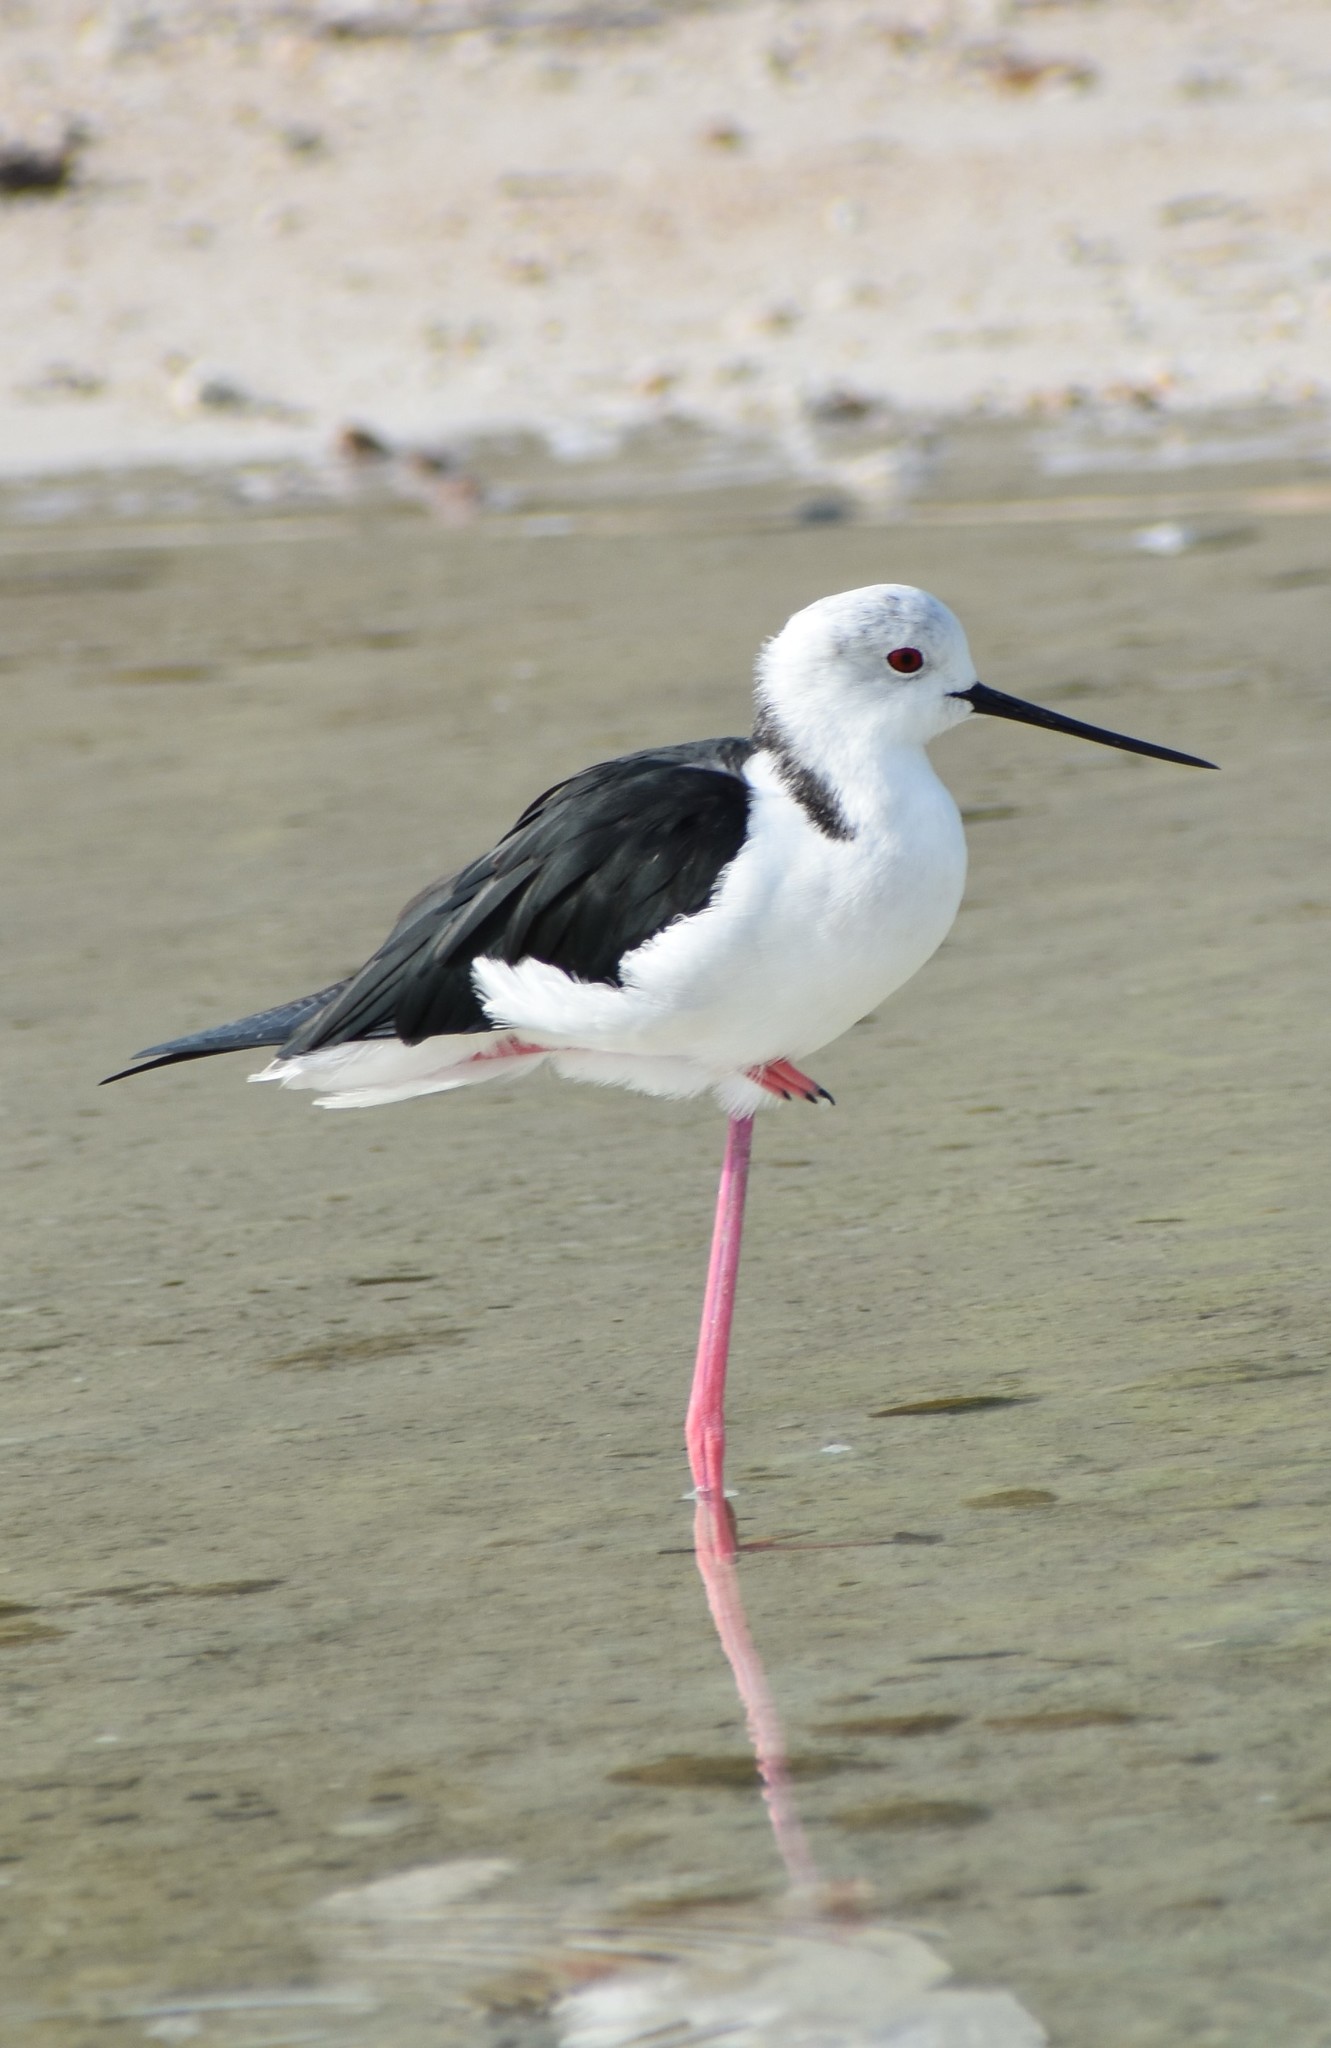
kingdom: Animalia
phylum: Chordata
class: Aves
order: Charadriiformes
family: Recurvirostridae
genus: Himantopus
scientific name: Himantopus himantopus
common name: Black-winged stilt
